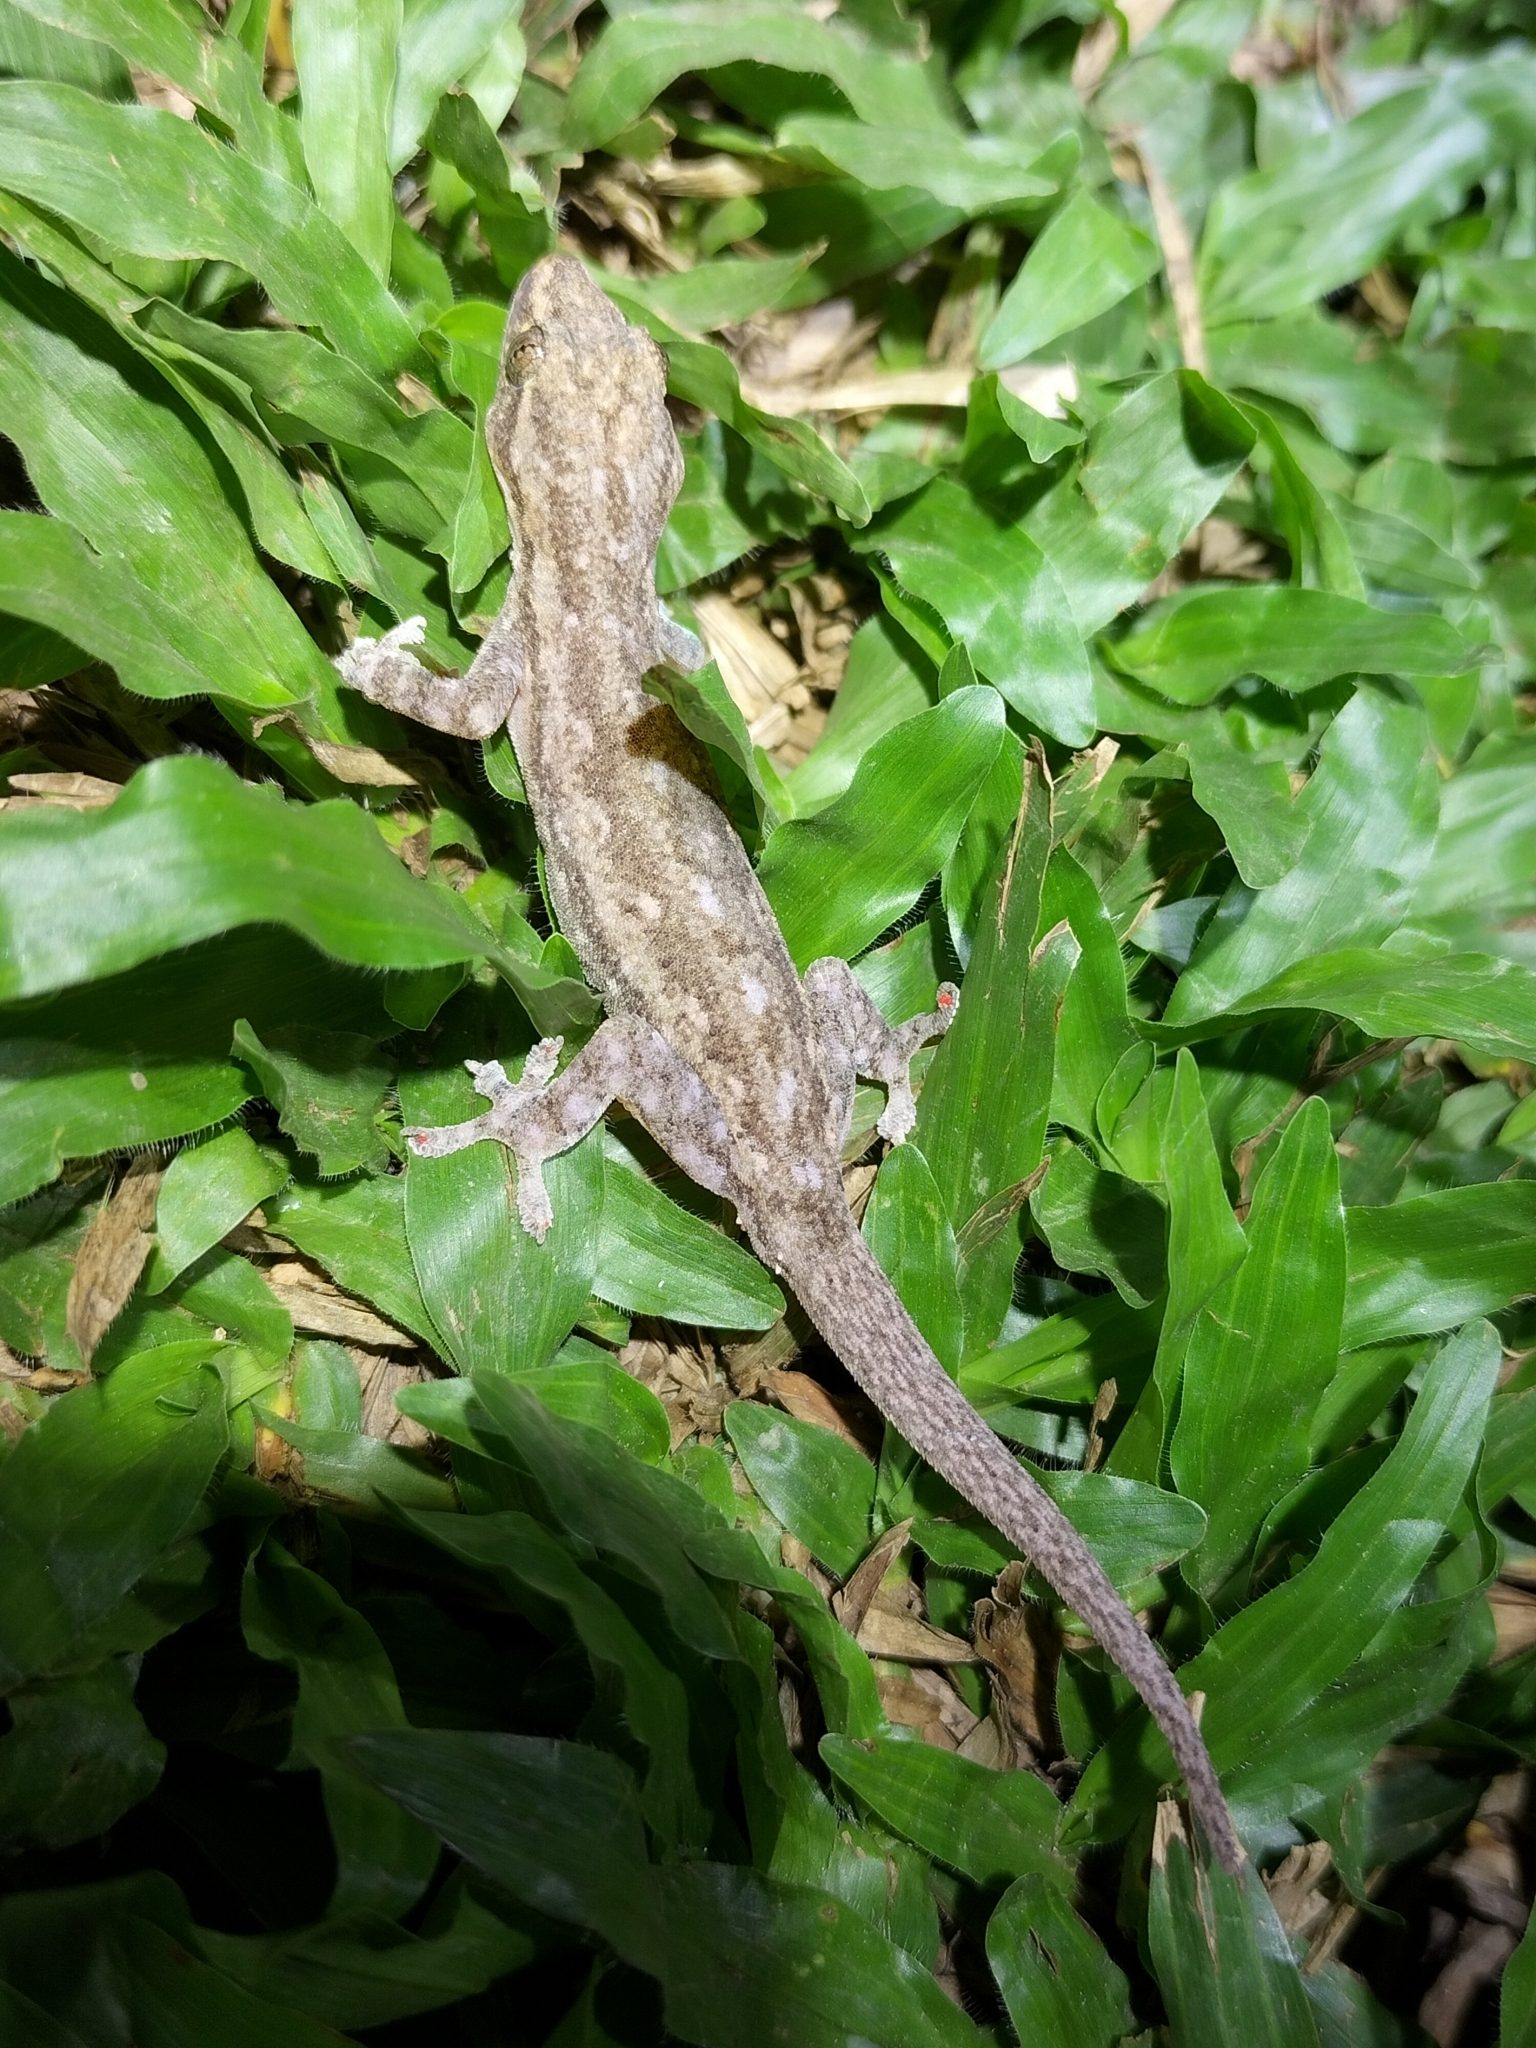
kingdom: Animalia
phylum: Chordata
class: Squamata
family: Gekkonidae
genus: Hemidactylus
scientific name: Hemidactylus frenatus
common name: Common house gecko
